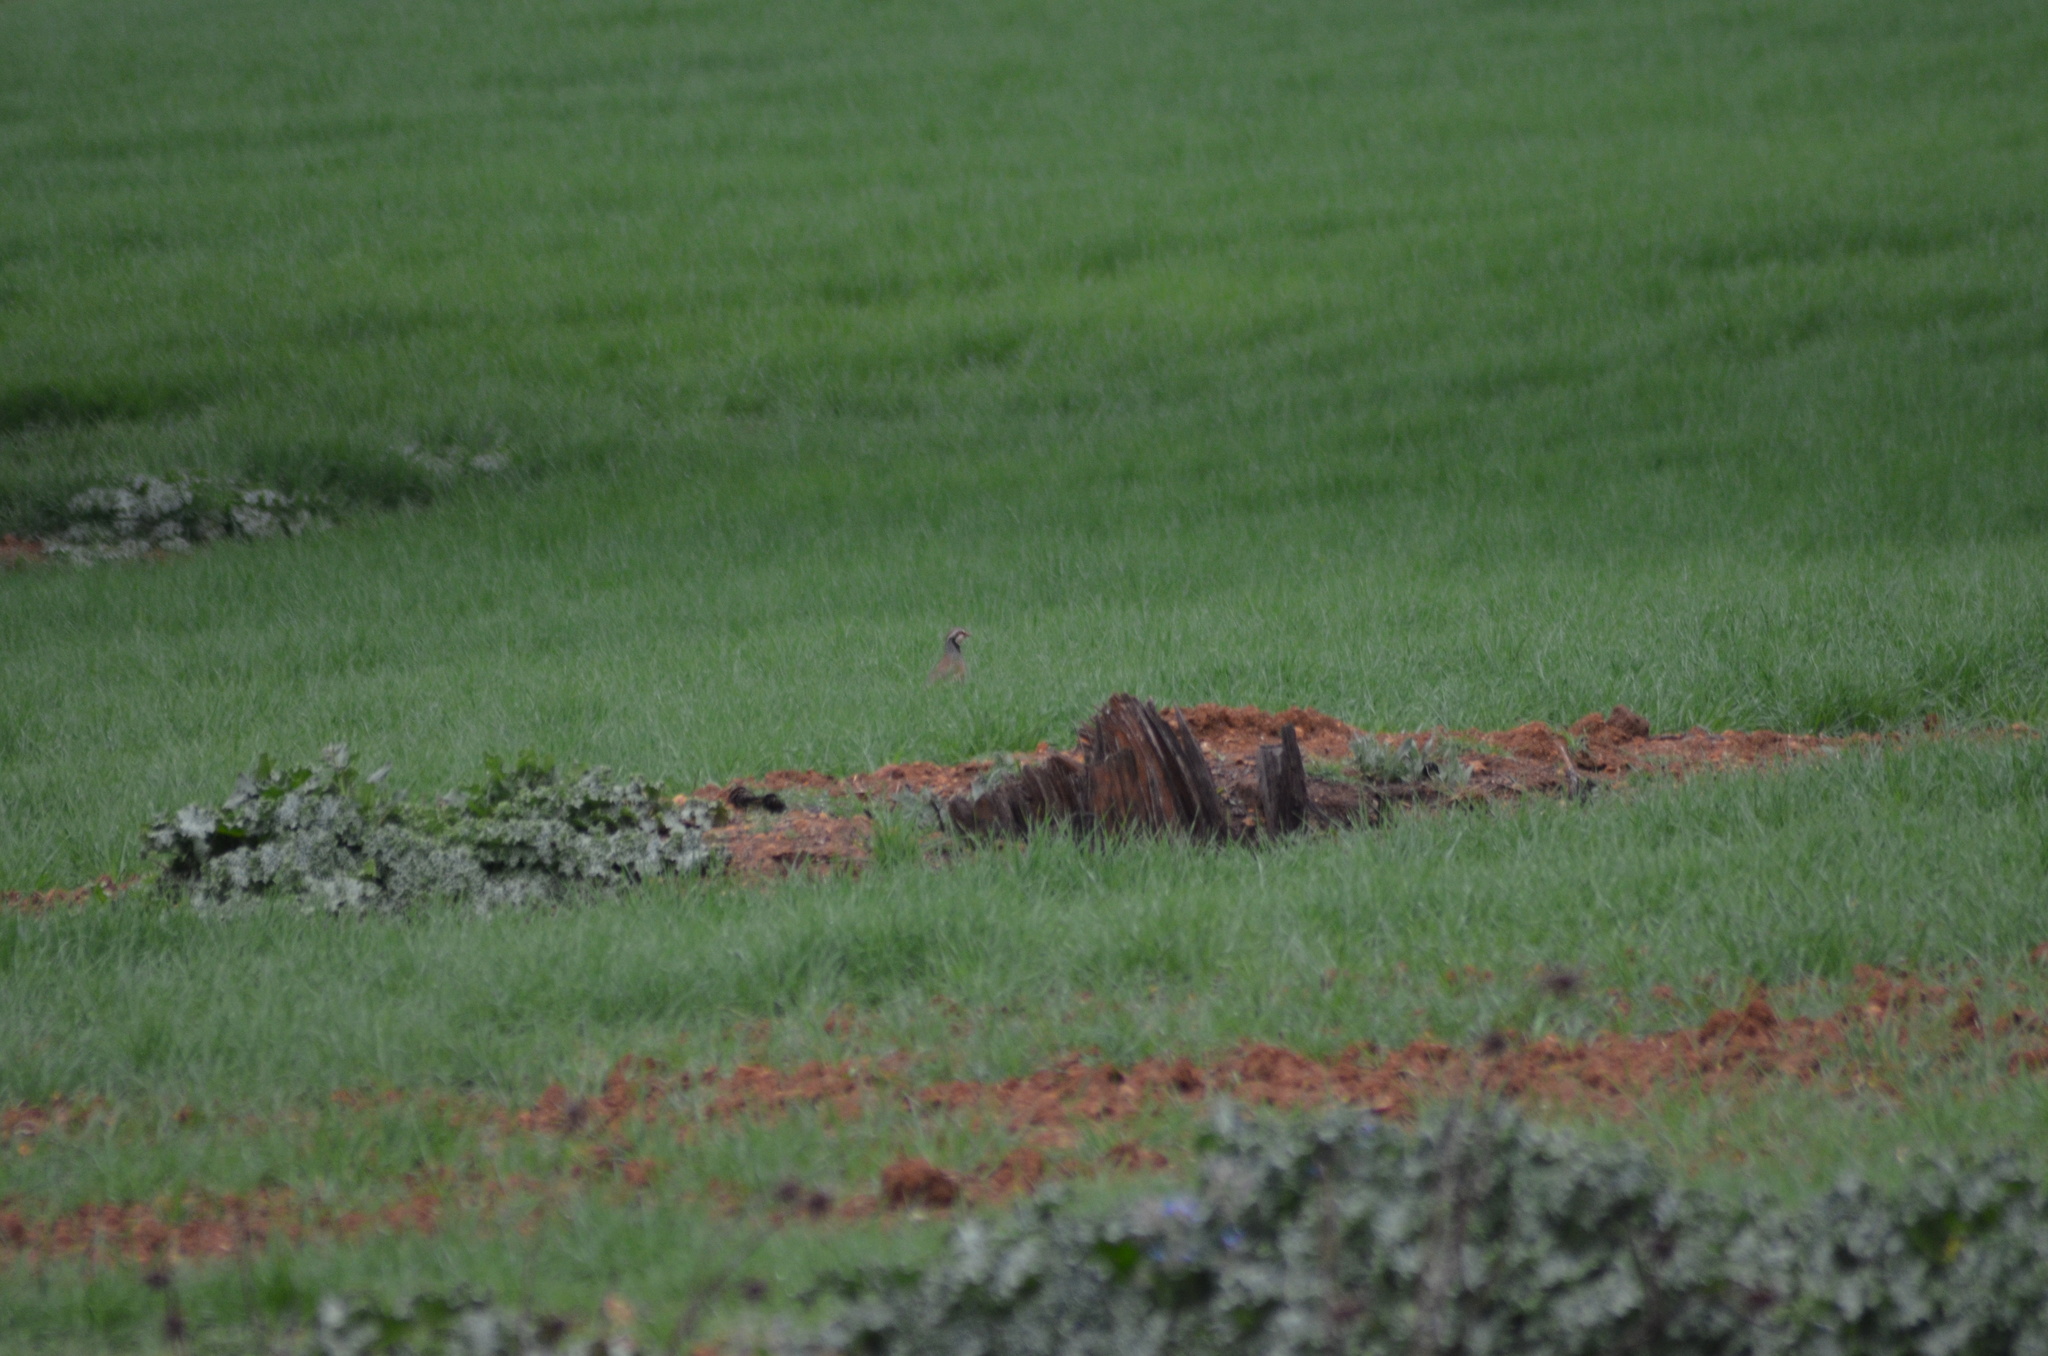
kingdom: Animalia
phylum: Chordata
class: Aves
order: Galliformes
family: Phasianidae
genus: Alectoris
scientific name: Alectoris rufa
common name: Red-legged partridge
